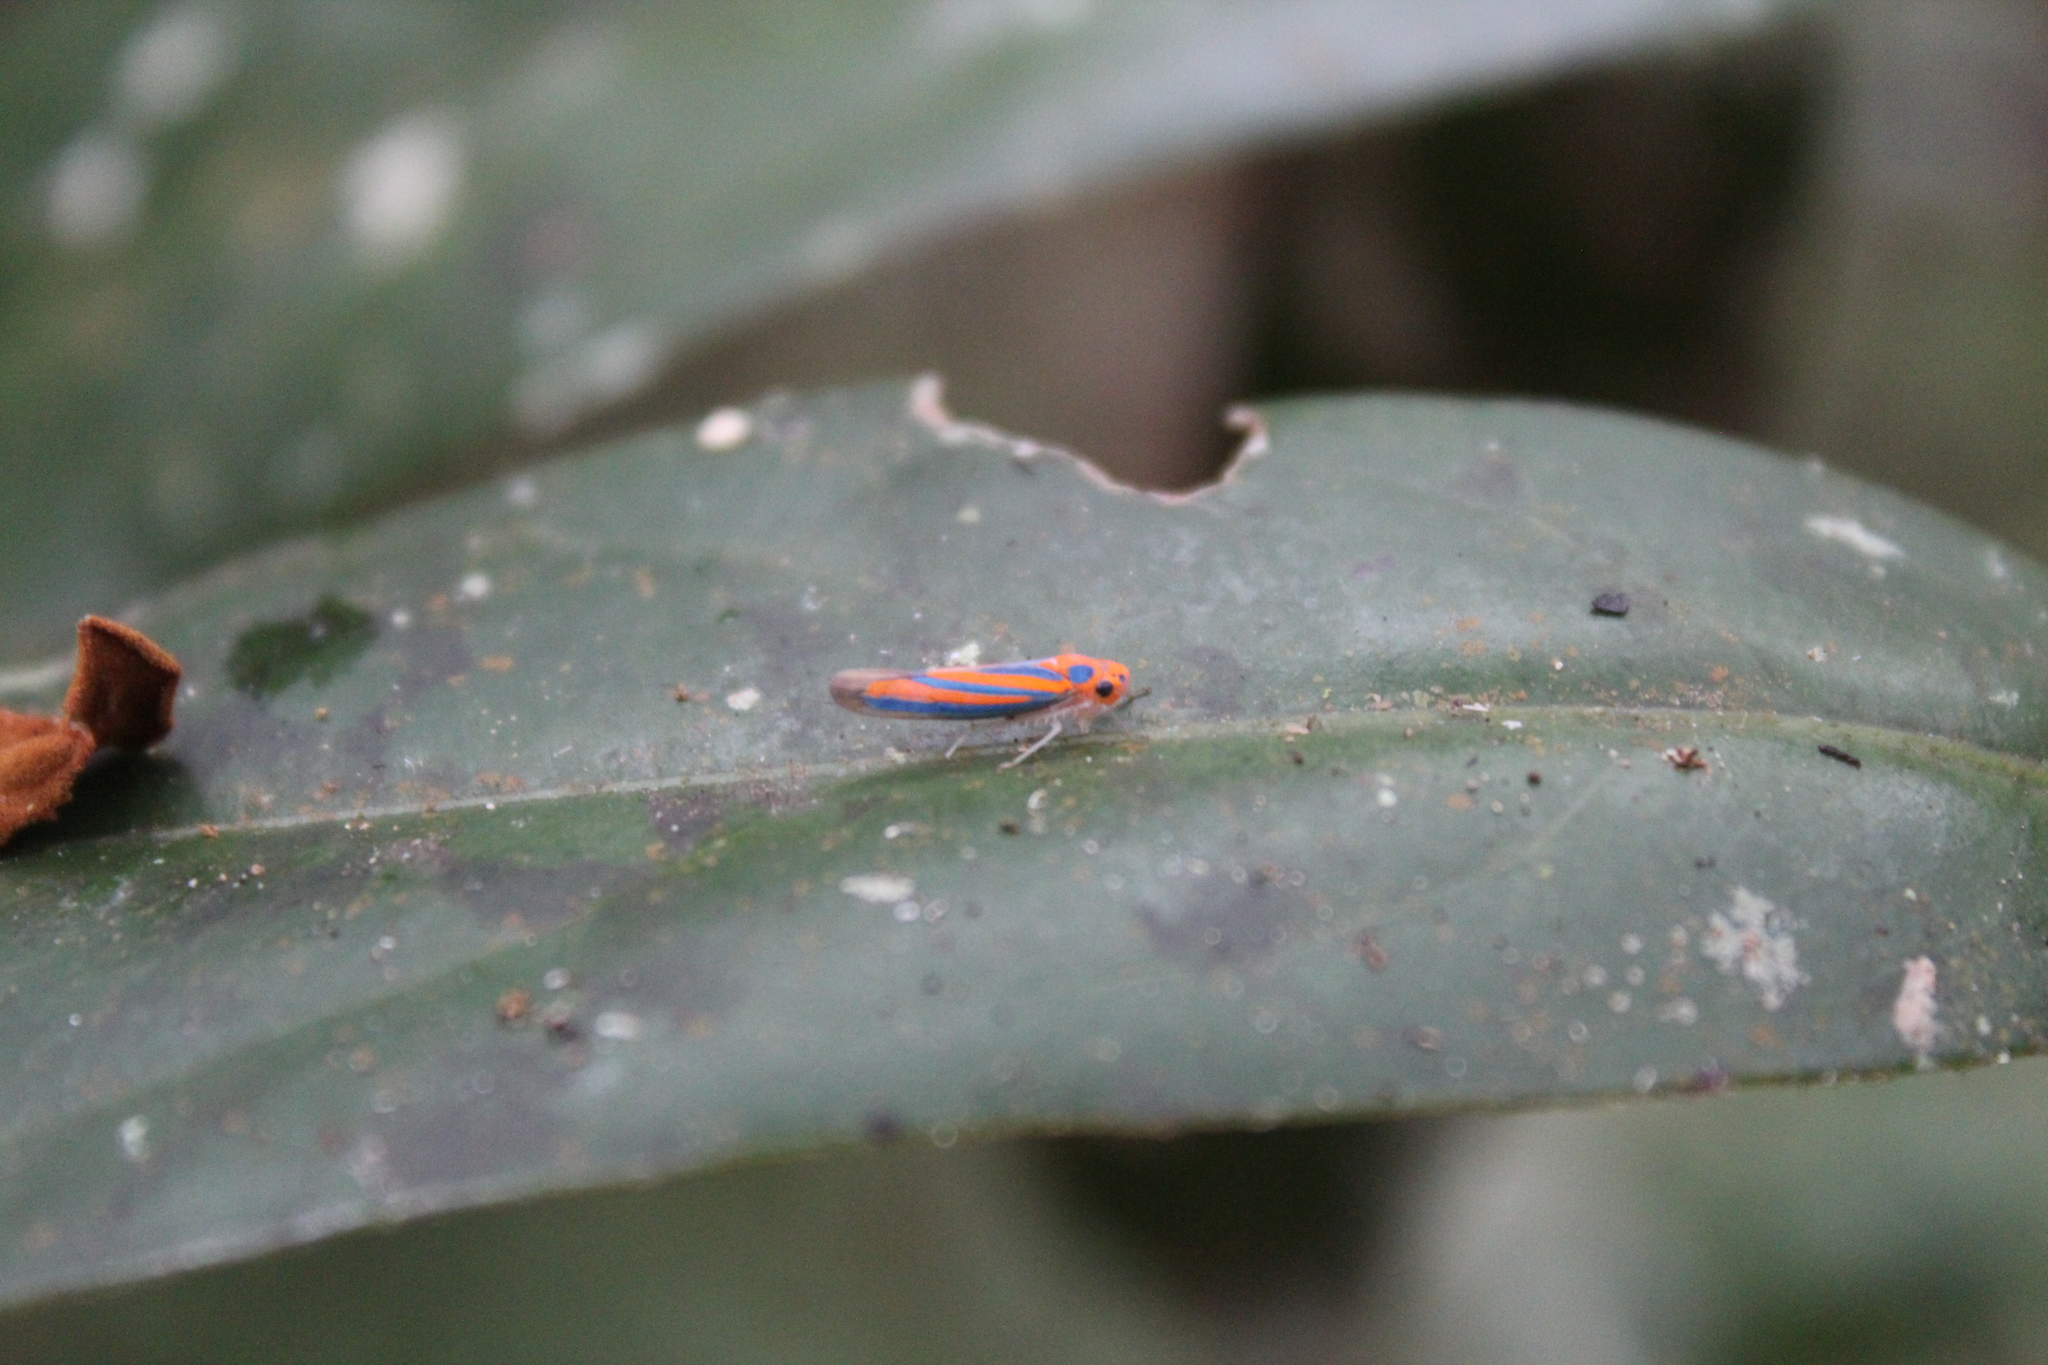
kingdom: Animalia
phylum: Arthropoda
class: Insecta
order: Hemiptera
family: Cicadellidae
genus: Madranga
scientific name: Madranga segnita
